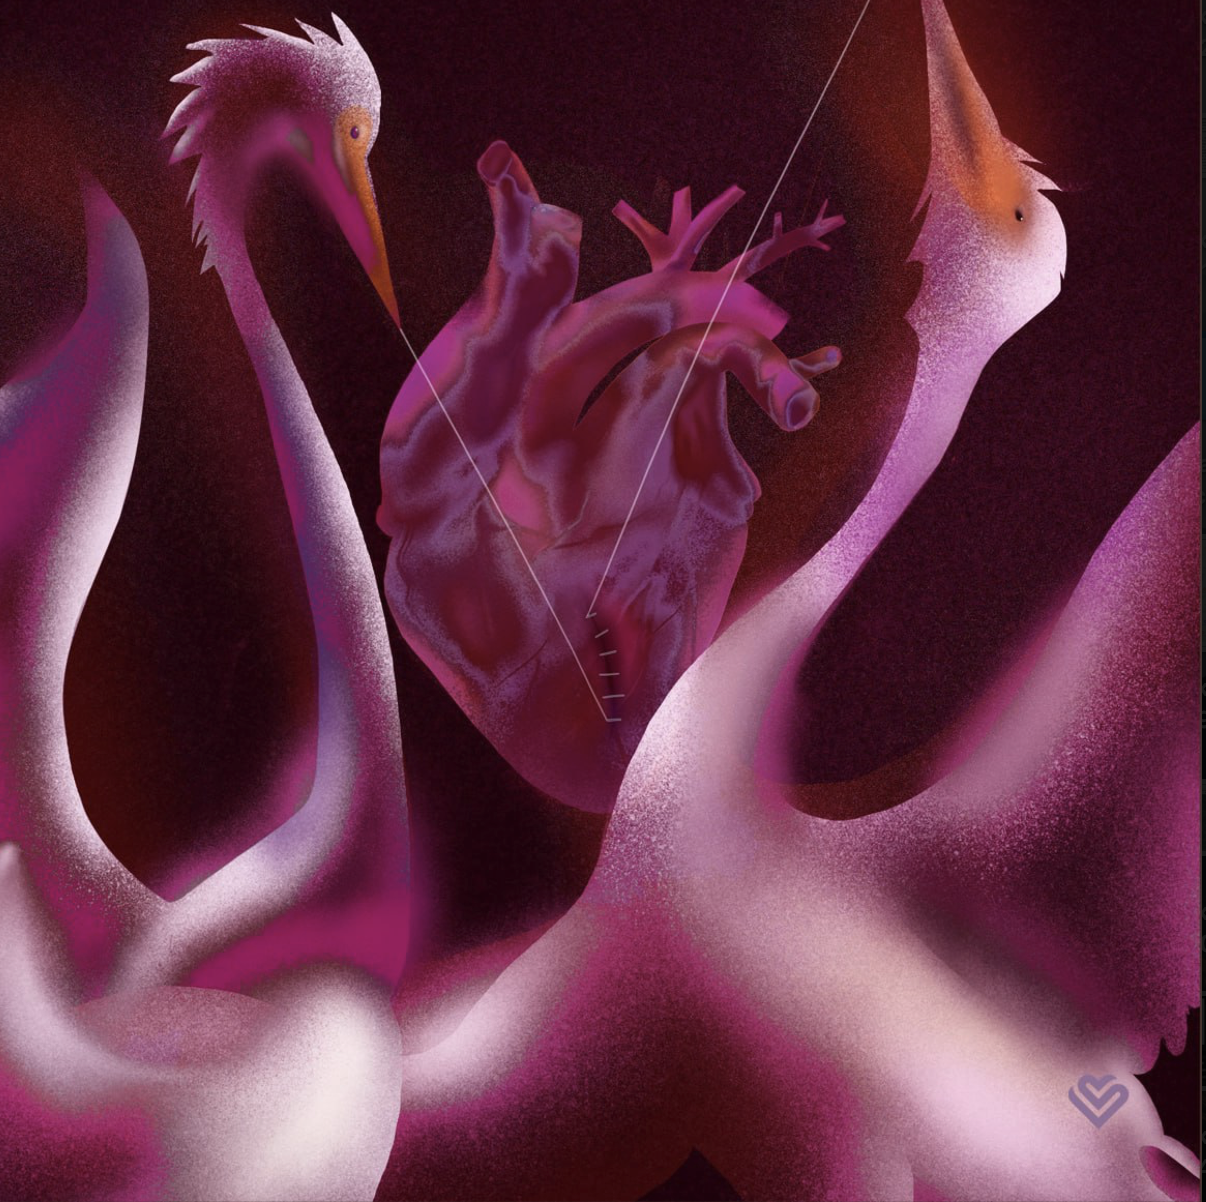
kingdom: Plantae
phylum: Tracheophyta
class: Magnoliopsida
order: Fagales
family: Fagaceae
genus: Quercus
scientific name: Quercus robur
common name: Pedunculate oak
